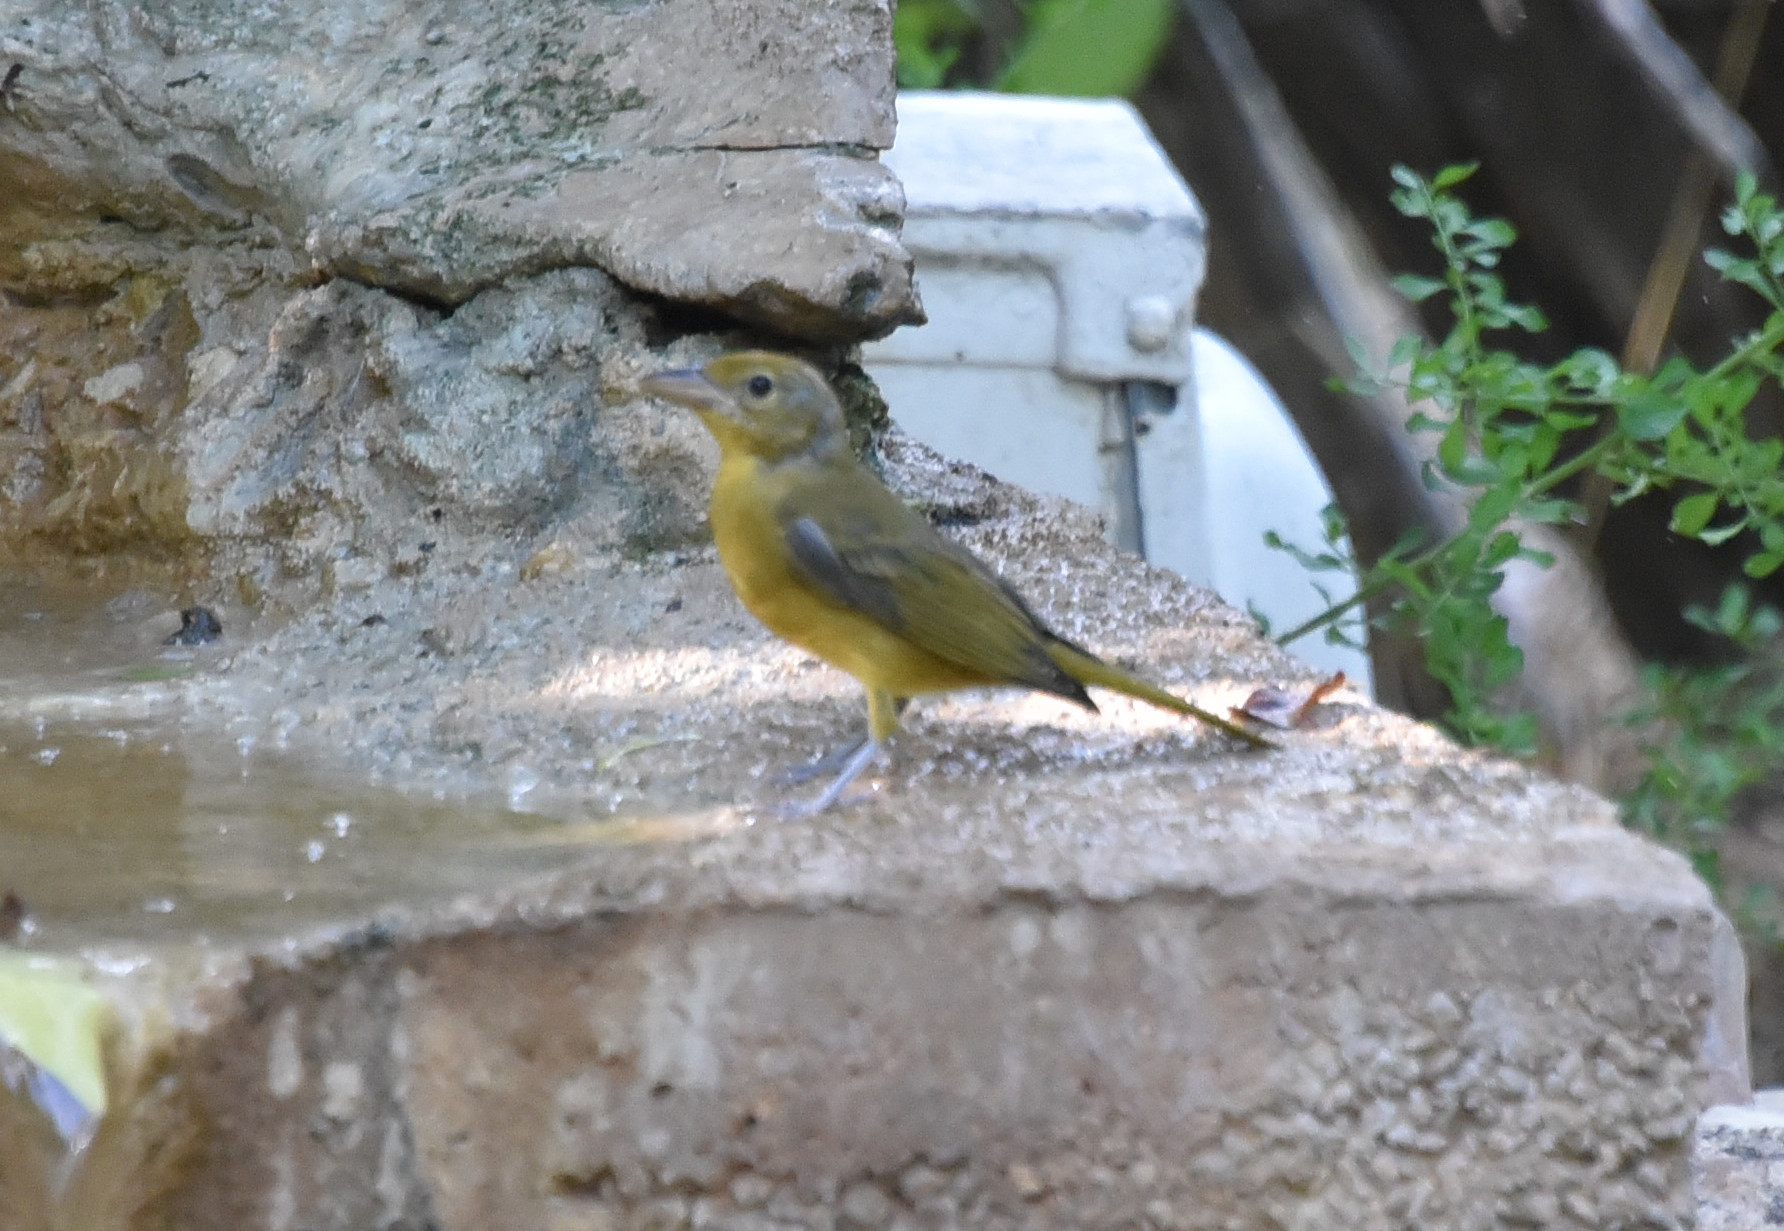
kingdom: Animalia
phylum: Chordata
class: Aves
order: Passeriformes
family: Cardinalidae
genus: Piranga
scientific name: Piranga rubra
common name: Summer tanager
